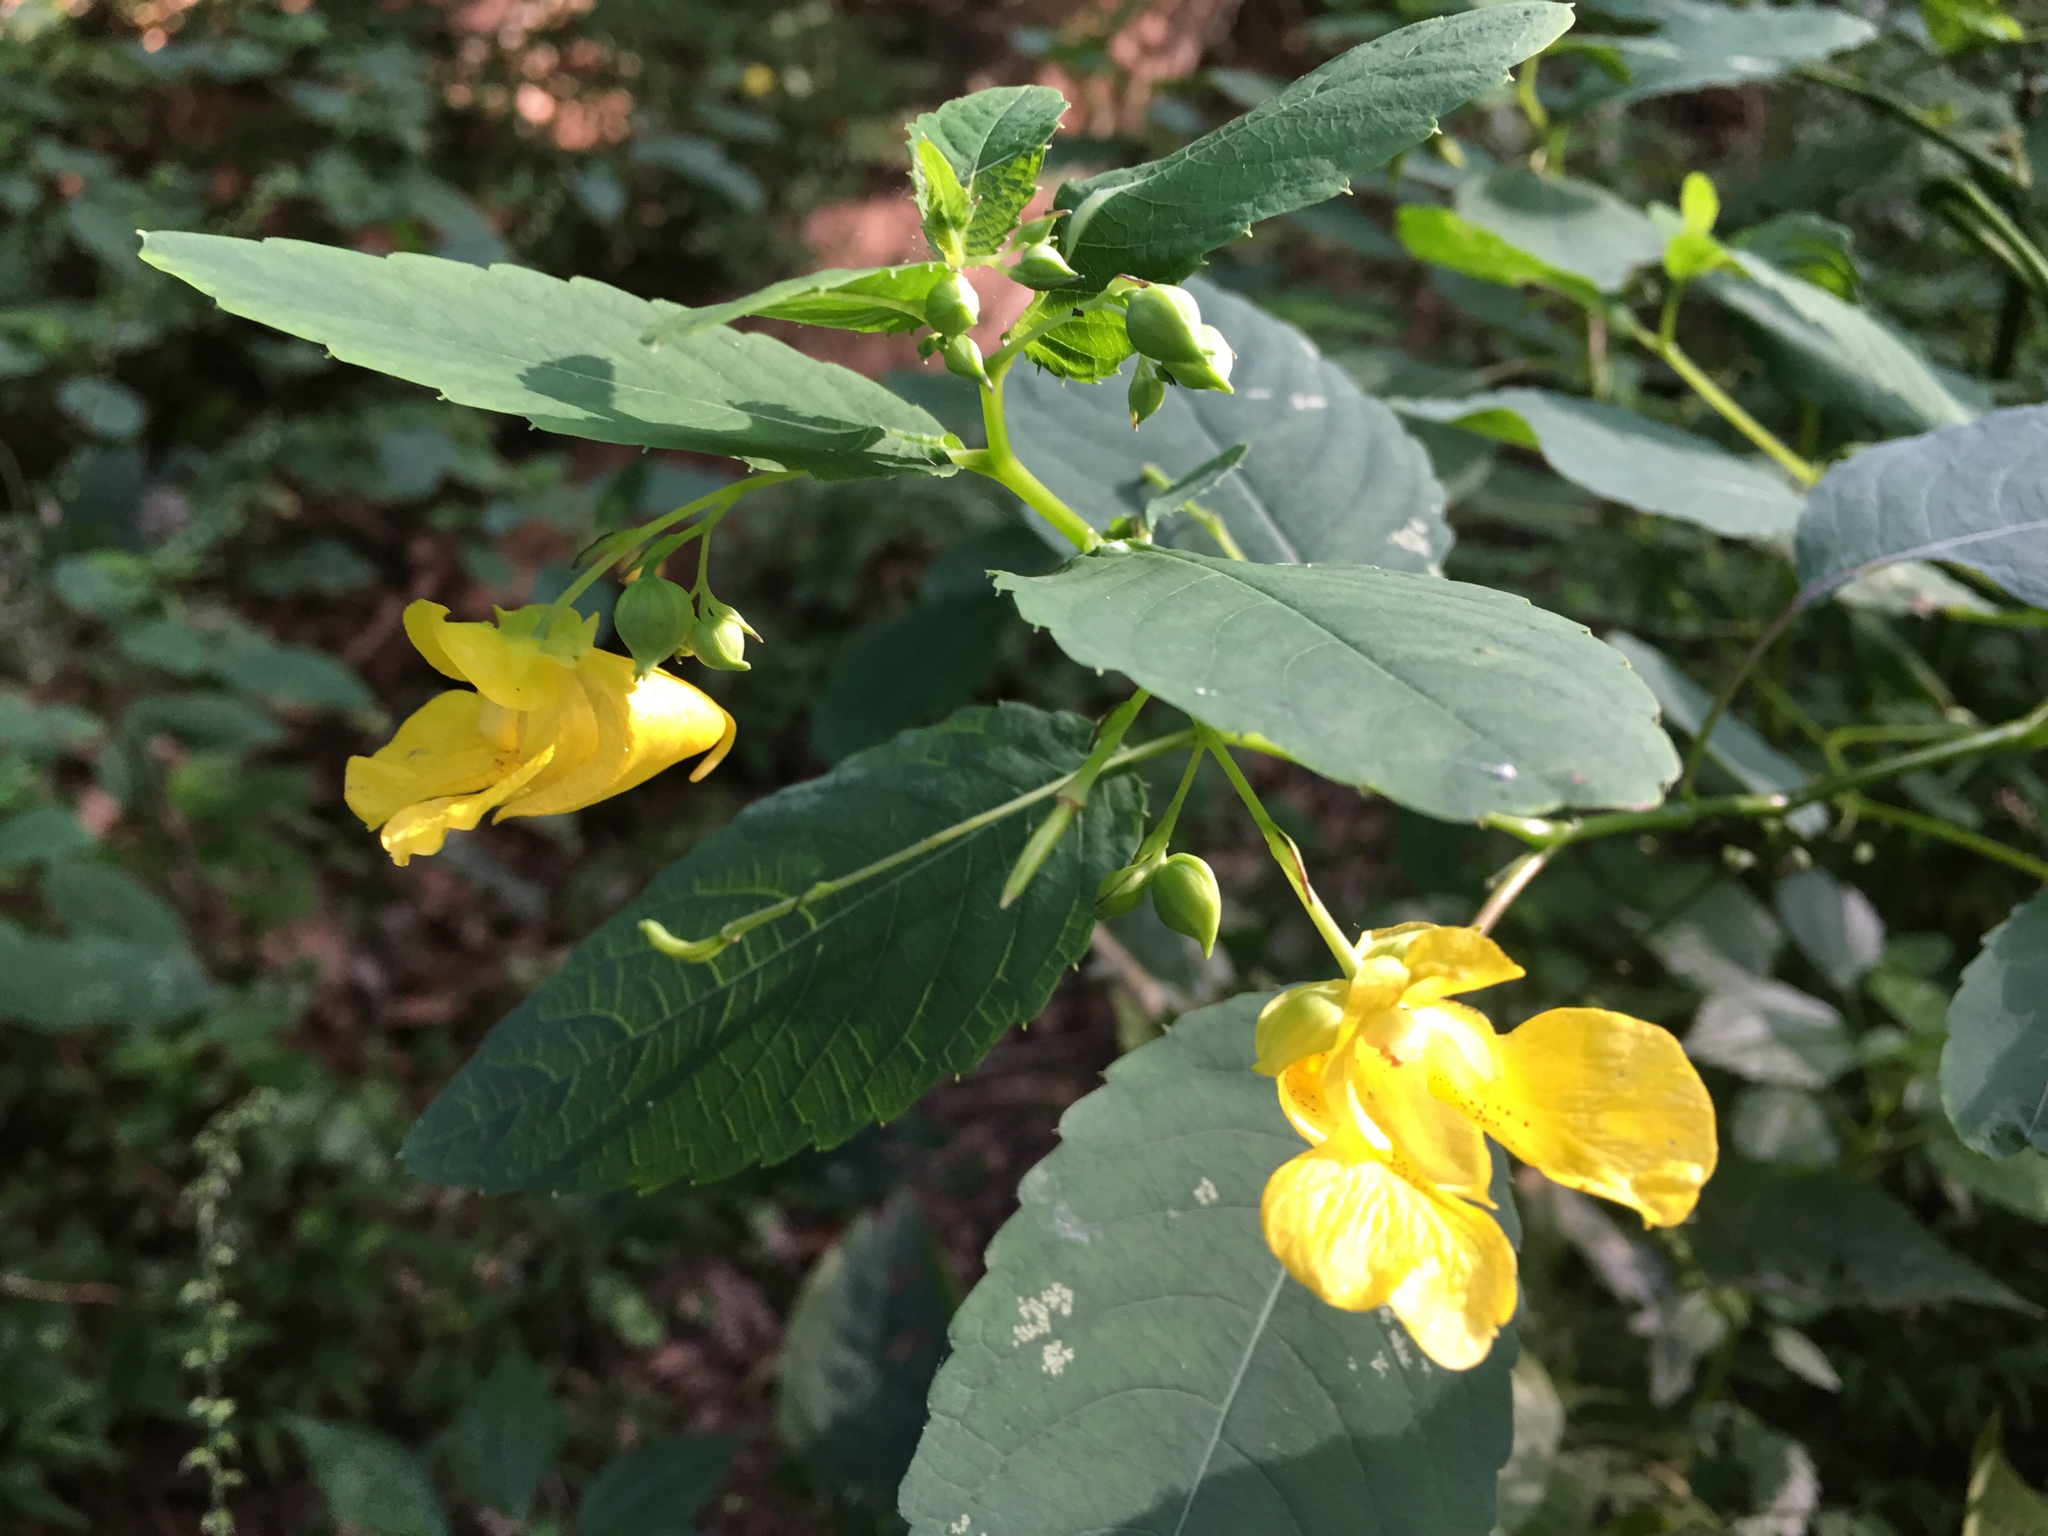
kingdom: Plantae
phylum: Tracheophyta
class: Magnoliopsida
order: Ericales
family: Balsaminaceae
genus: Impatiens
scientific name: Impatiens pallida
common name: Pale snapweed
